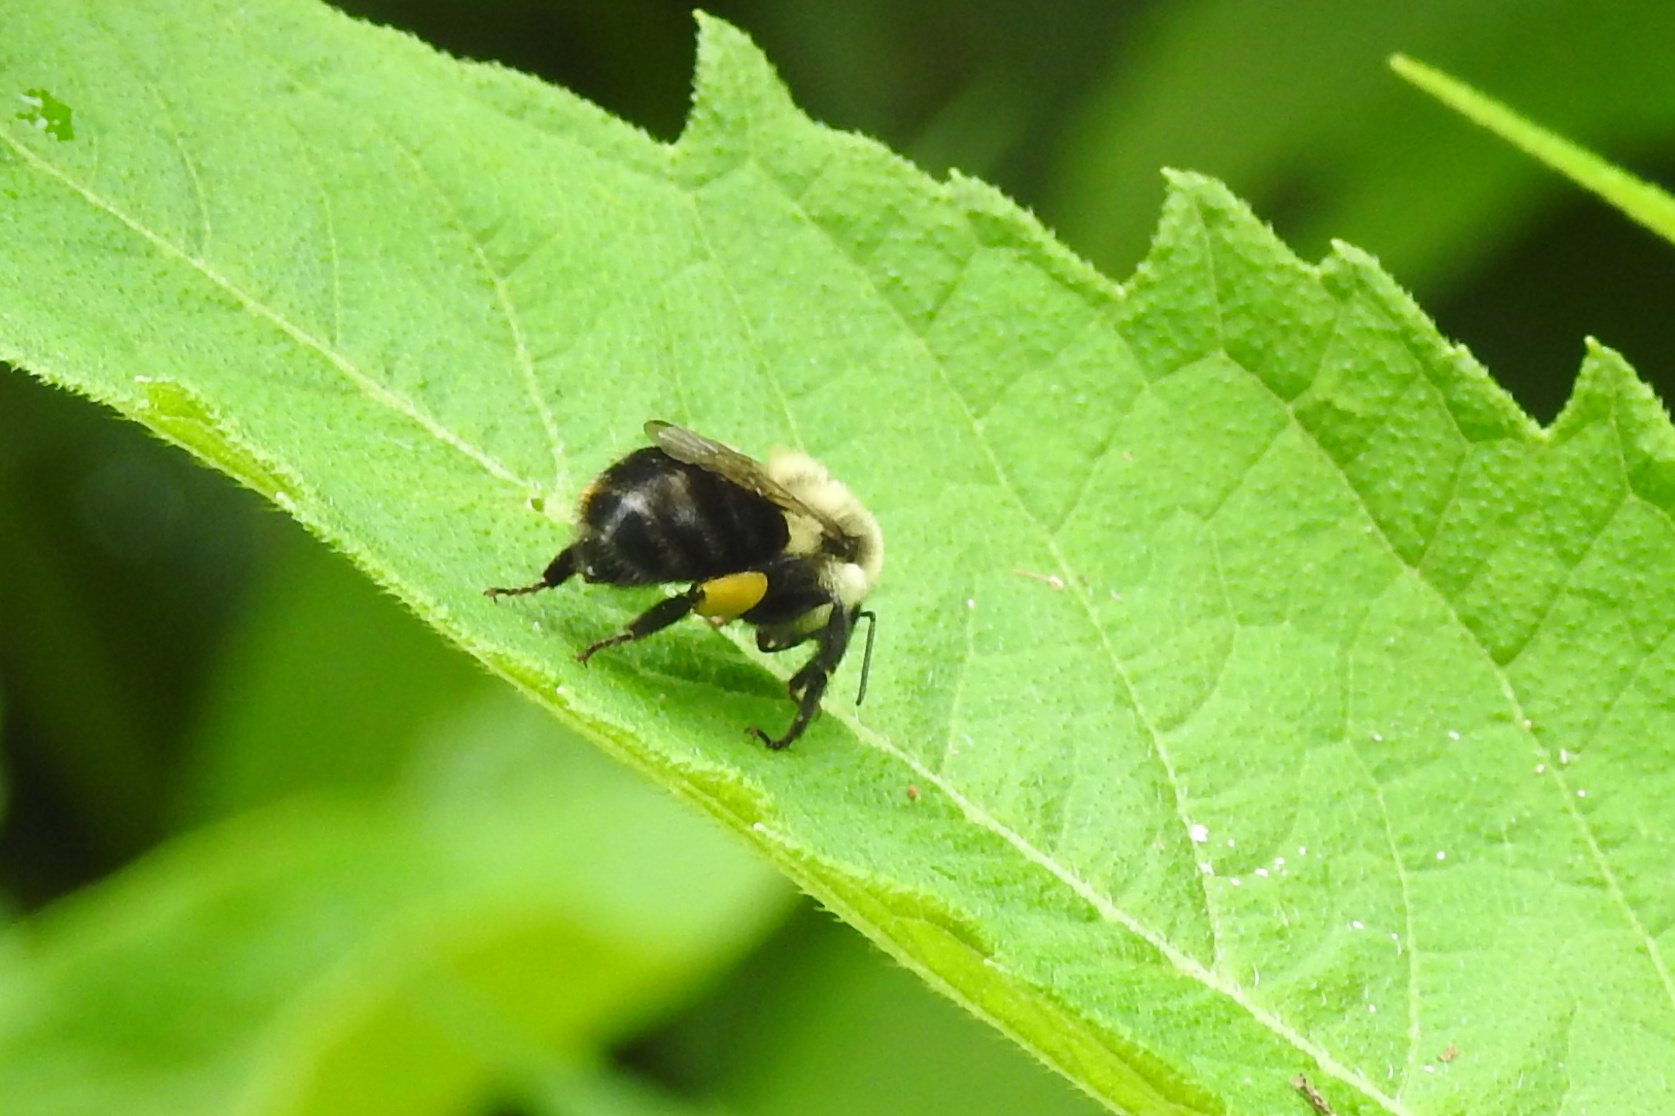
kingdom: Animalia
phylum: Arthropoda
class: Insecta
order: Hymenoptera
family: Apidae
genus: Bombus
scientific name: Bombus impatiens
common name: Common eastern bumble bee
